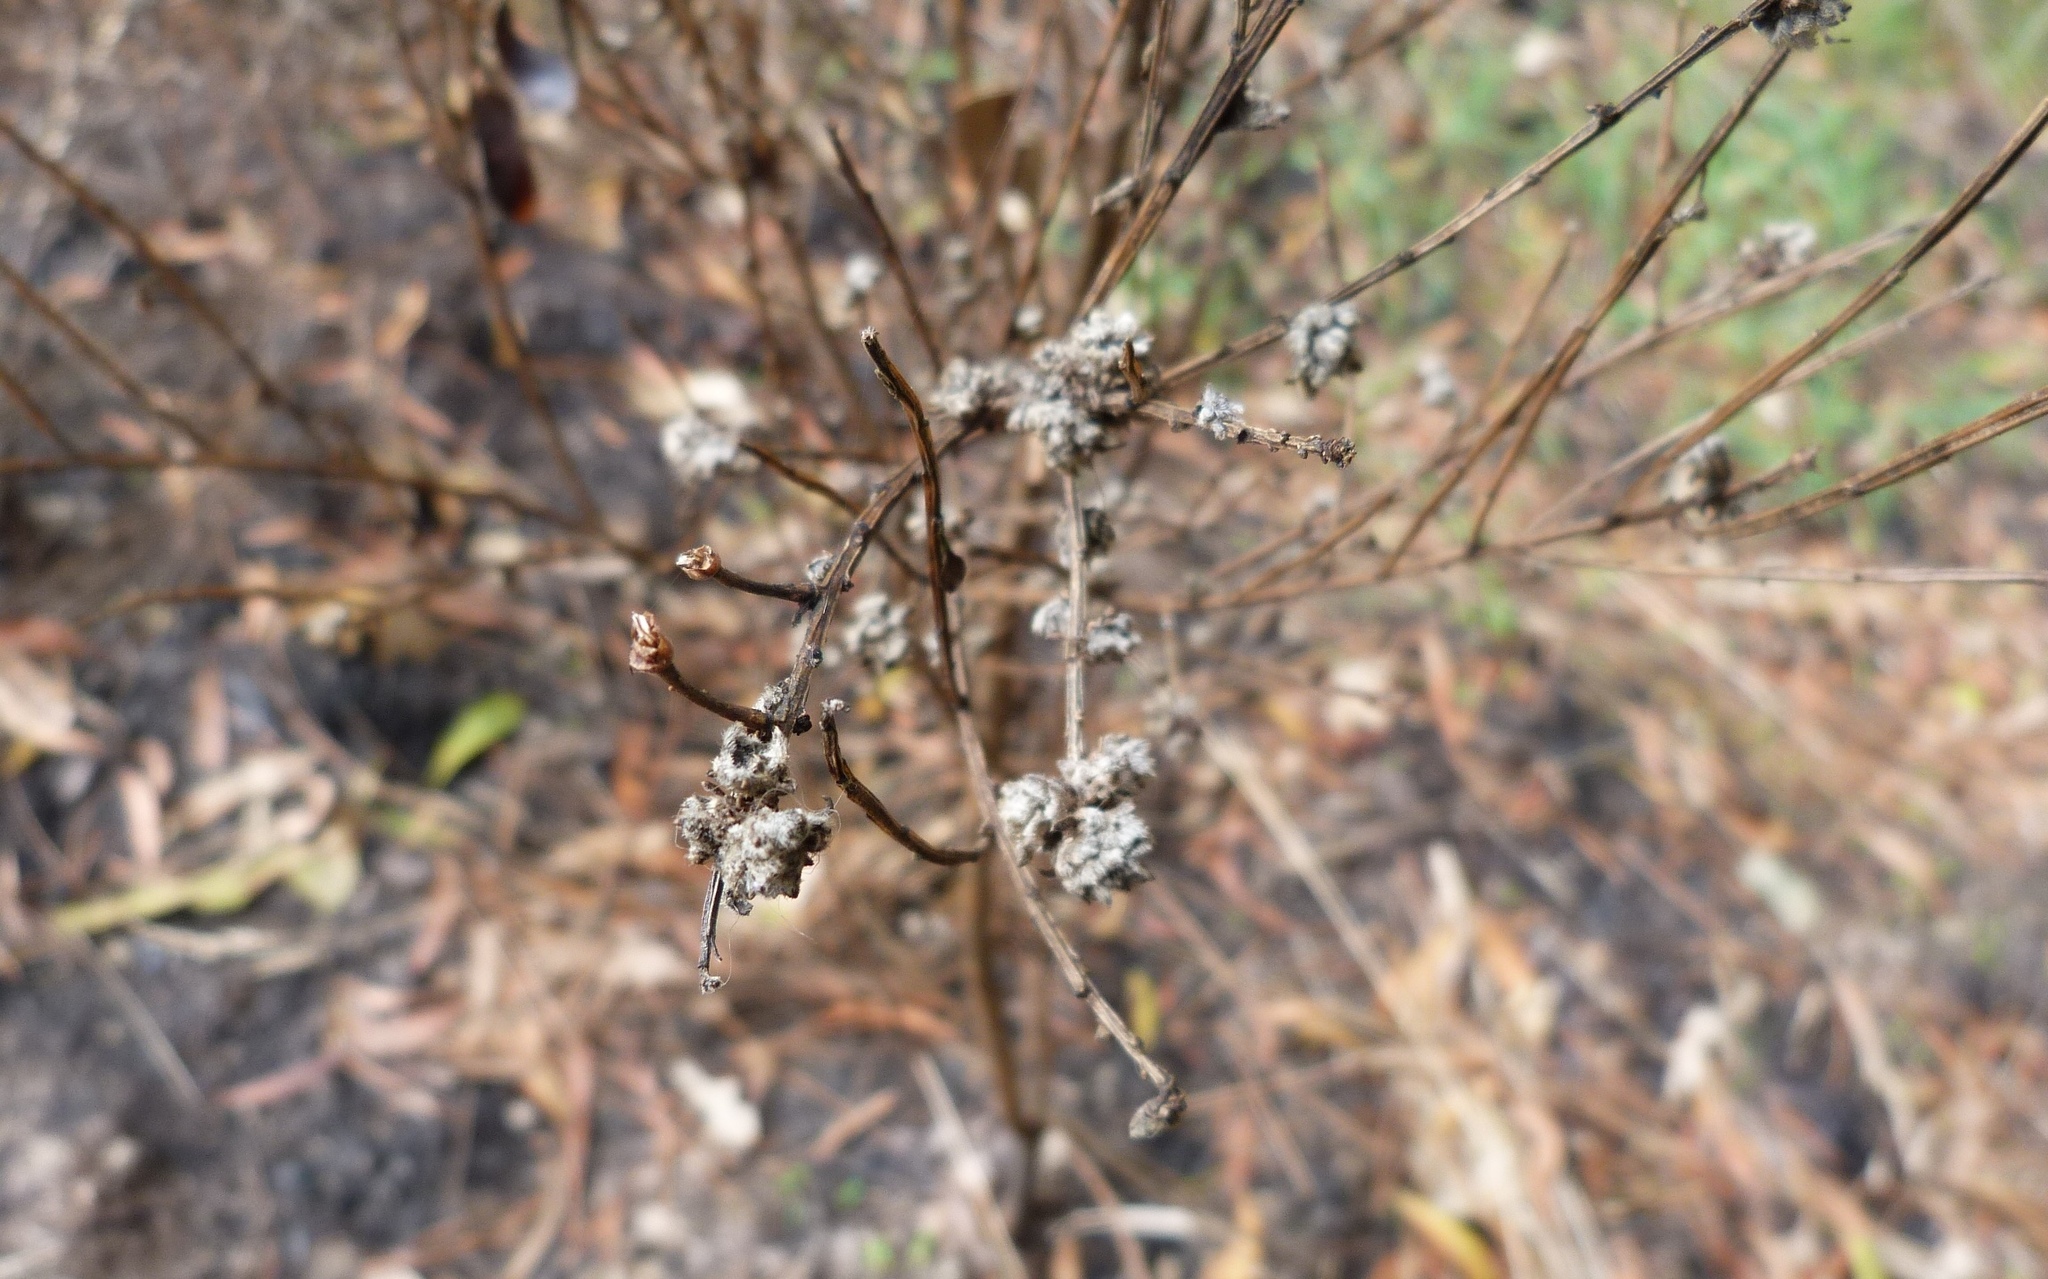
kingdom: Animalia
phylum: Arthropoda
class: Arachnida
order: Trombidiformes
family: Eriophyidae
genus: Aceria
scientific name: Aceria genistae
